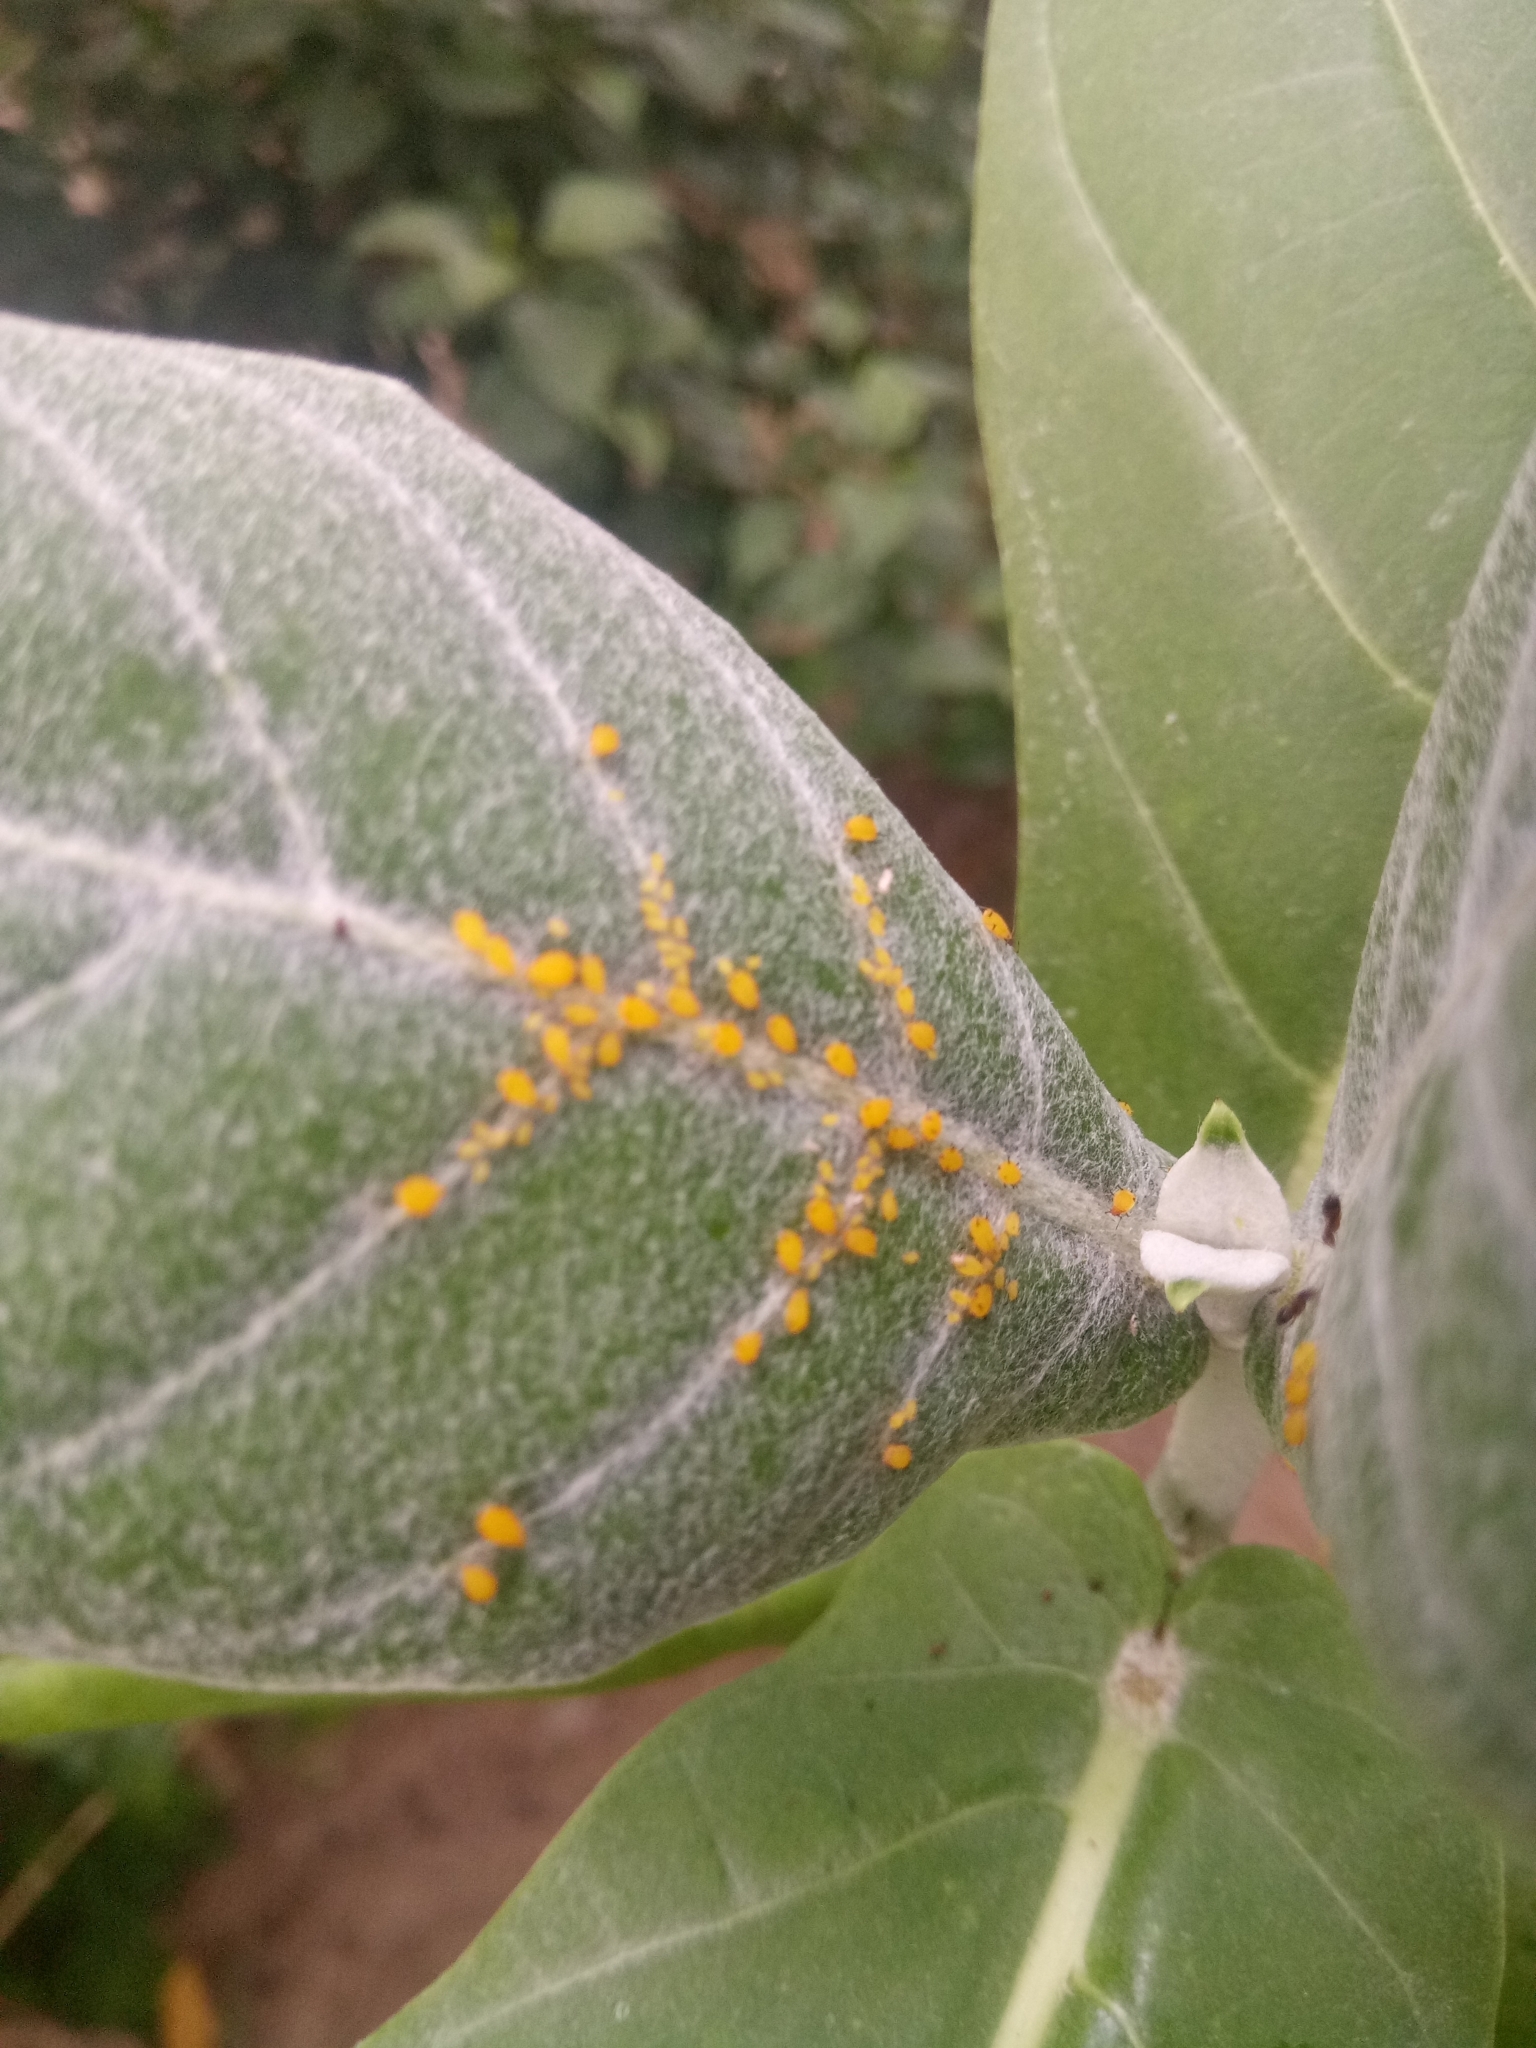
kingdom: Animalia
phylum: Arthropoda
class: Insecta
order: Hemiptera
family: Aphididae
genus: Aphis
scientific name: Aphis nerii
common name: Oleander aphid
